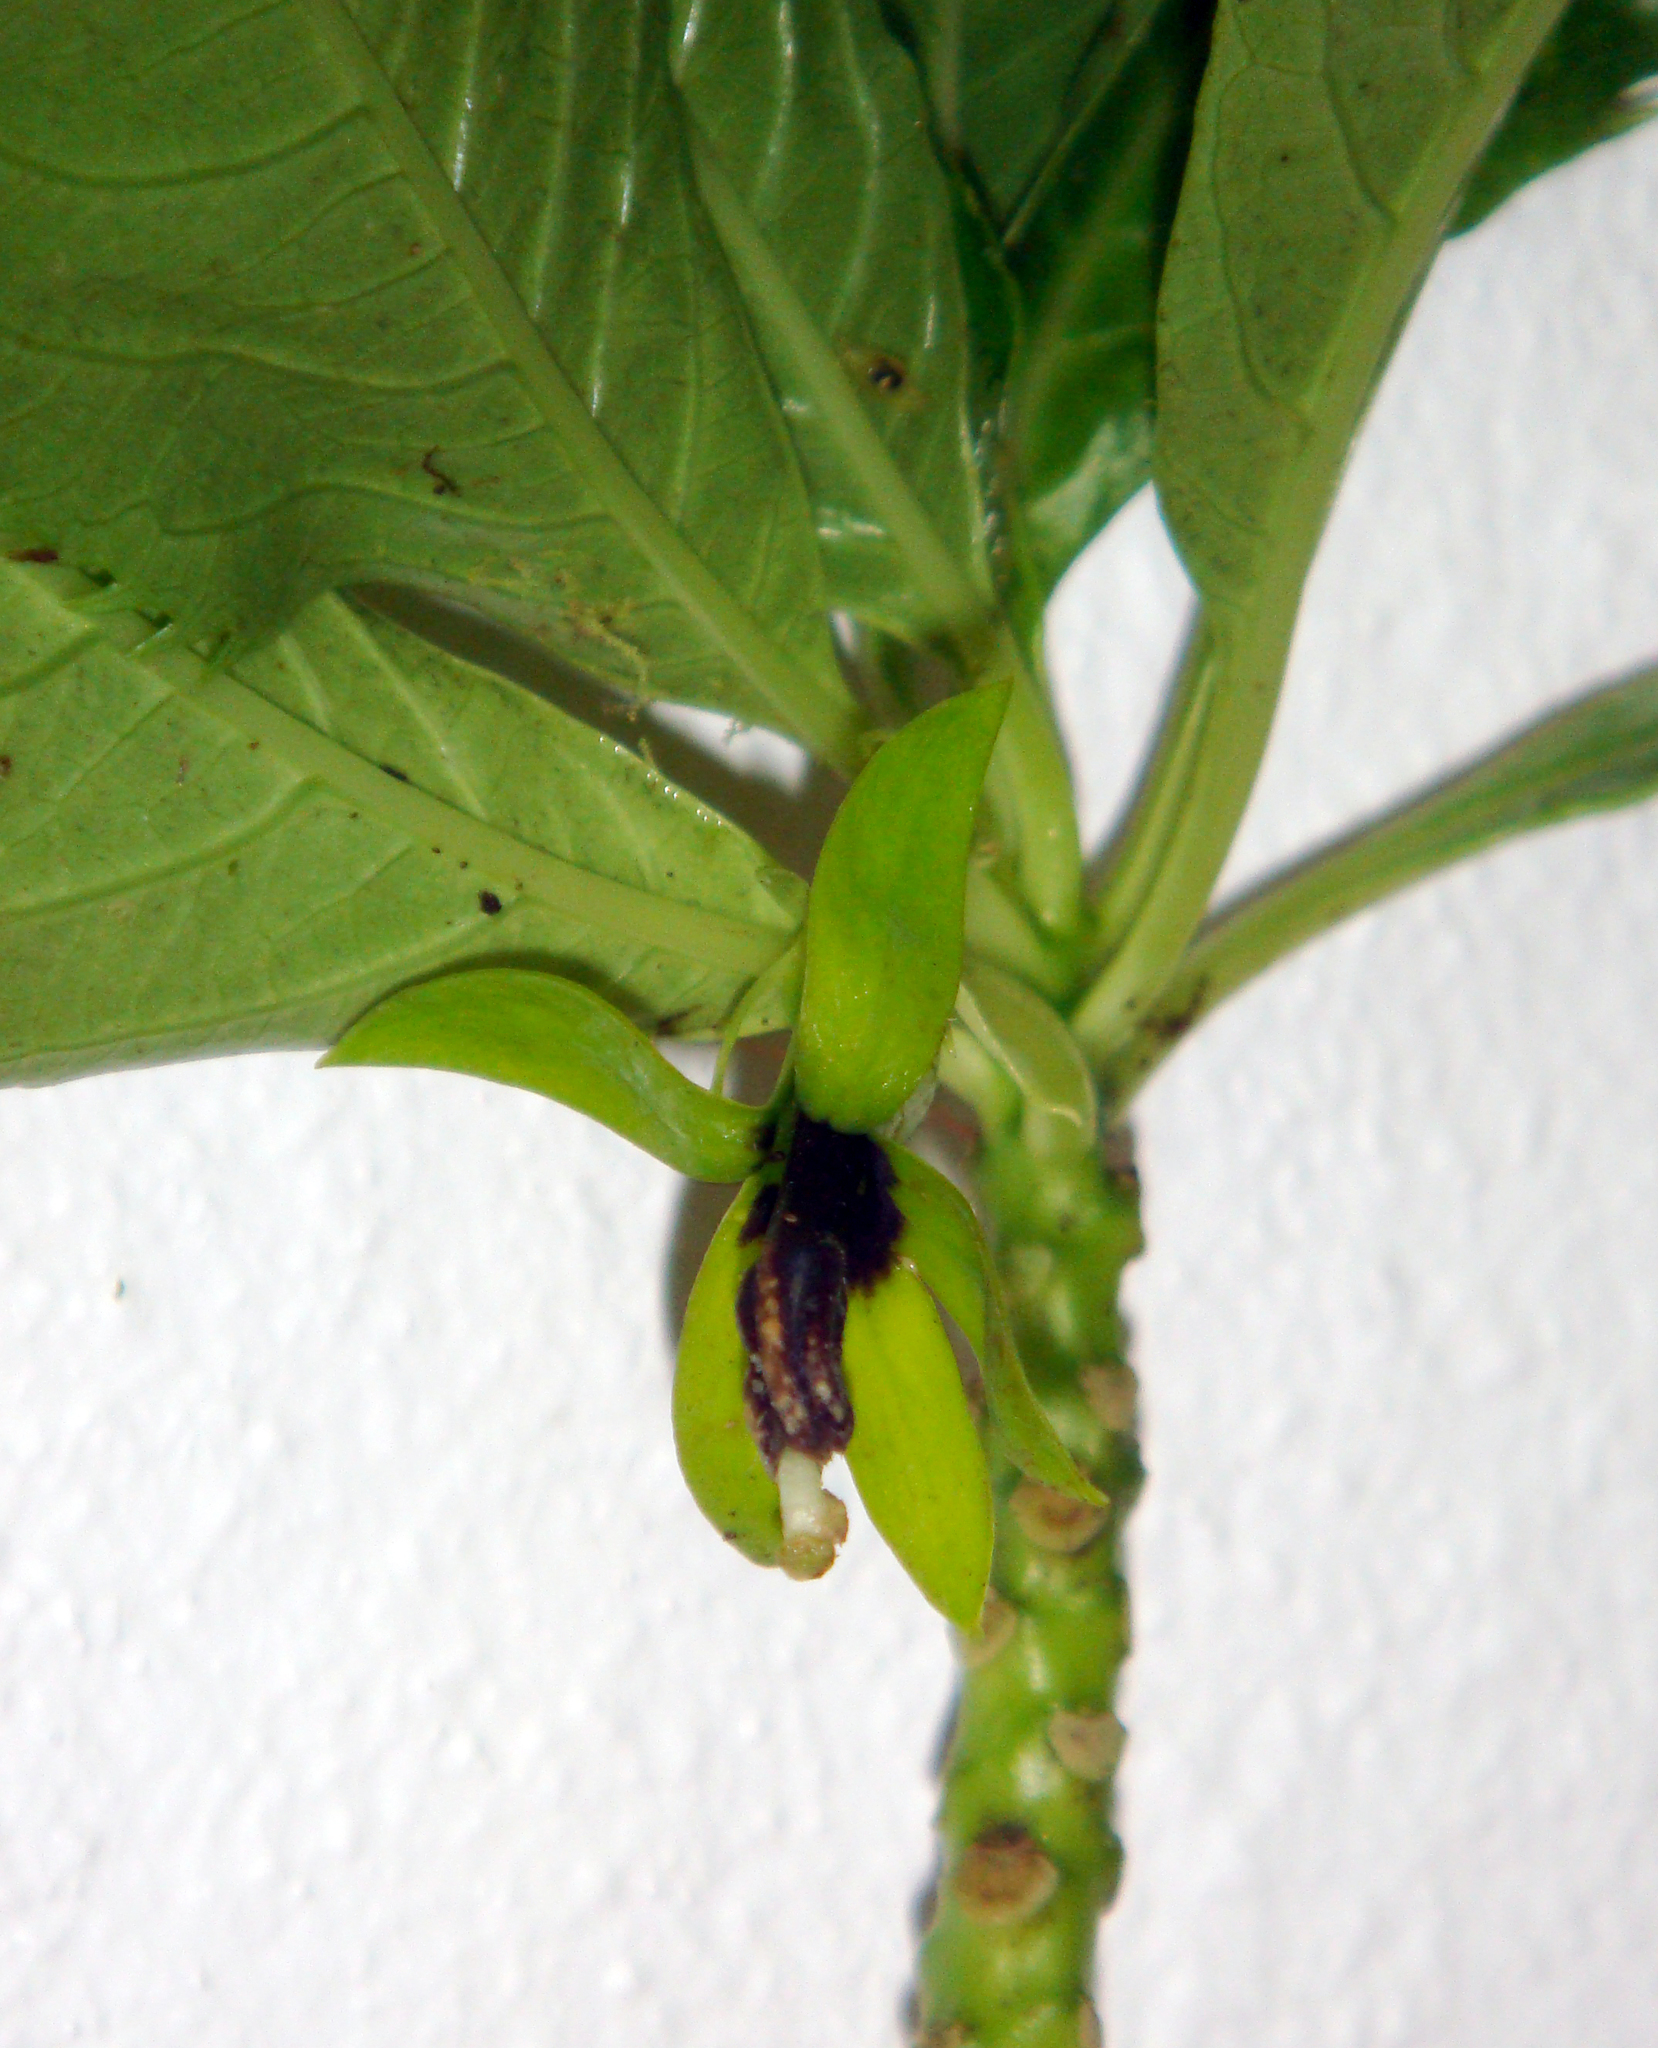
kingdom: Plantae
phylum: Tracheophyta
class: Magnoliopsida
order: Asterales
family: Campanulaceae
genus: Sclerotheca
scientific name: Sclerotheca viridiflora
